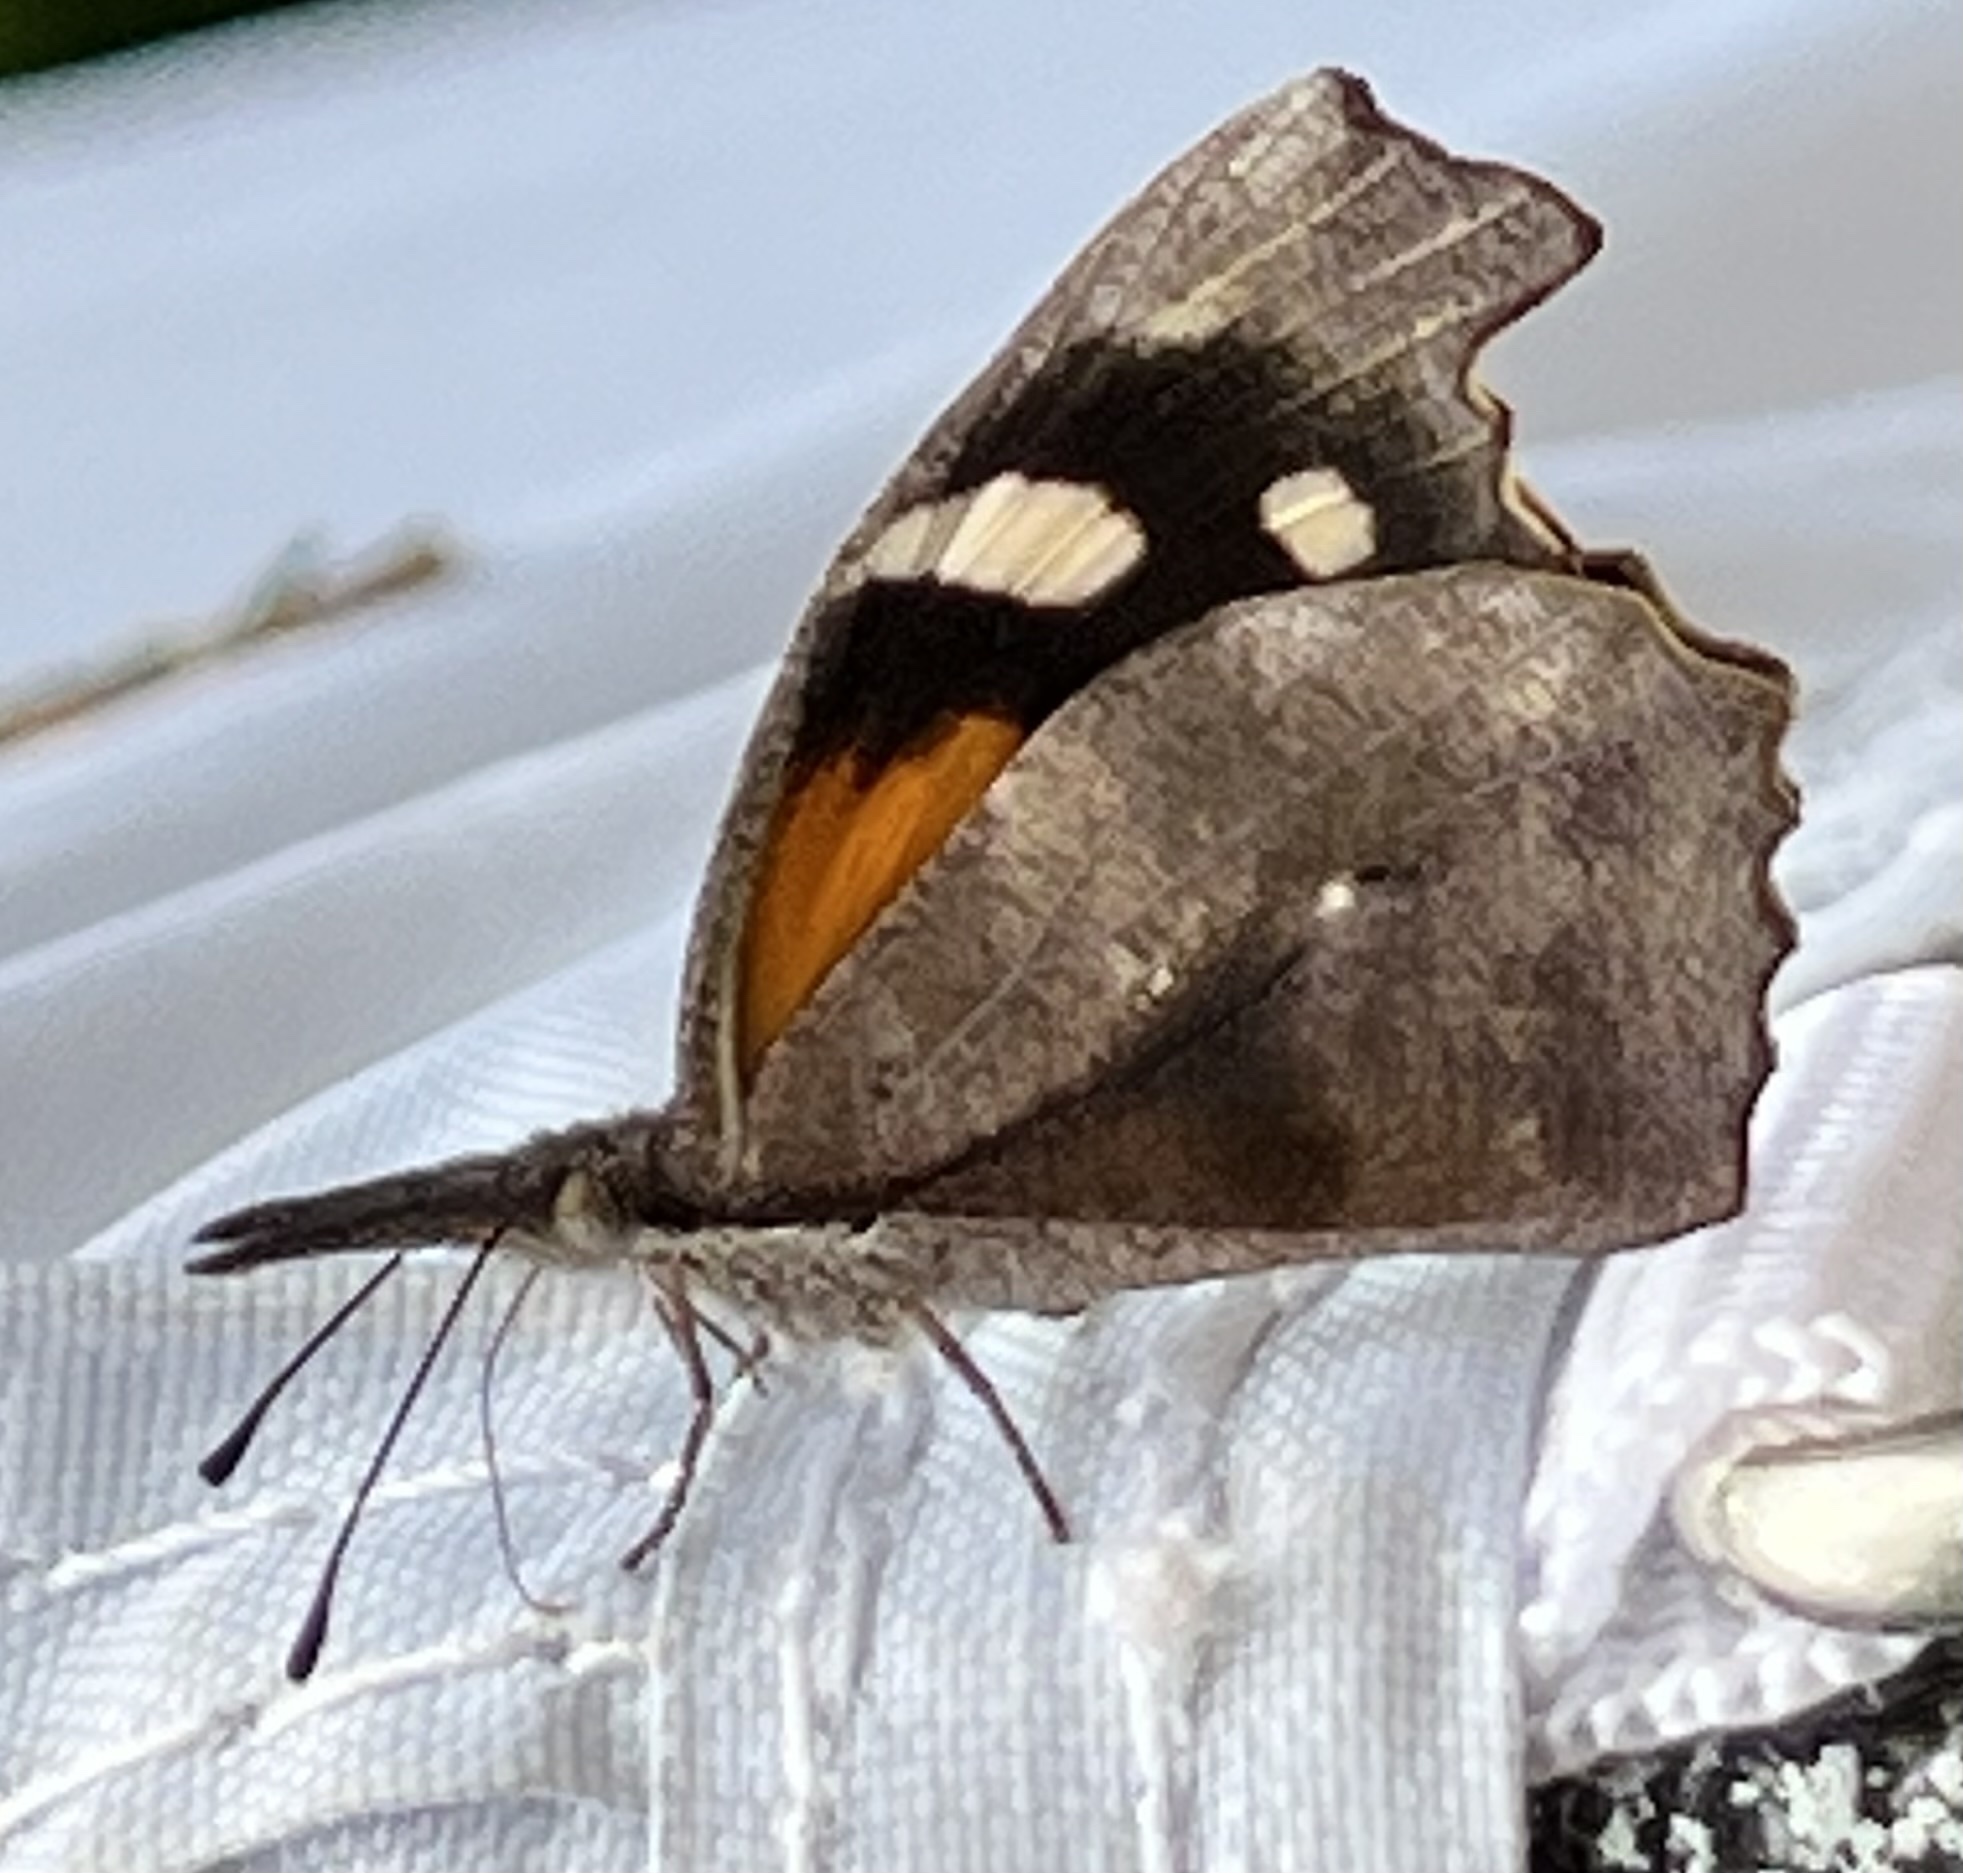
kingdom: Animalia
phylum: Arthropoda
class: Insecta
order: Lepidoptera
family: Nymphalidae
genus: Libytheana
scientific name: Libytheana carinenta
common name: American snout
